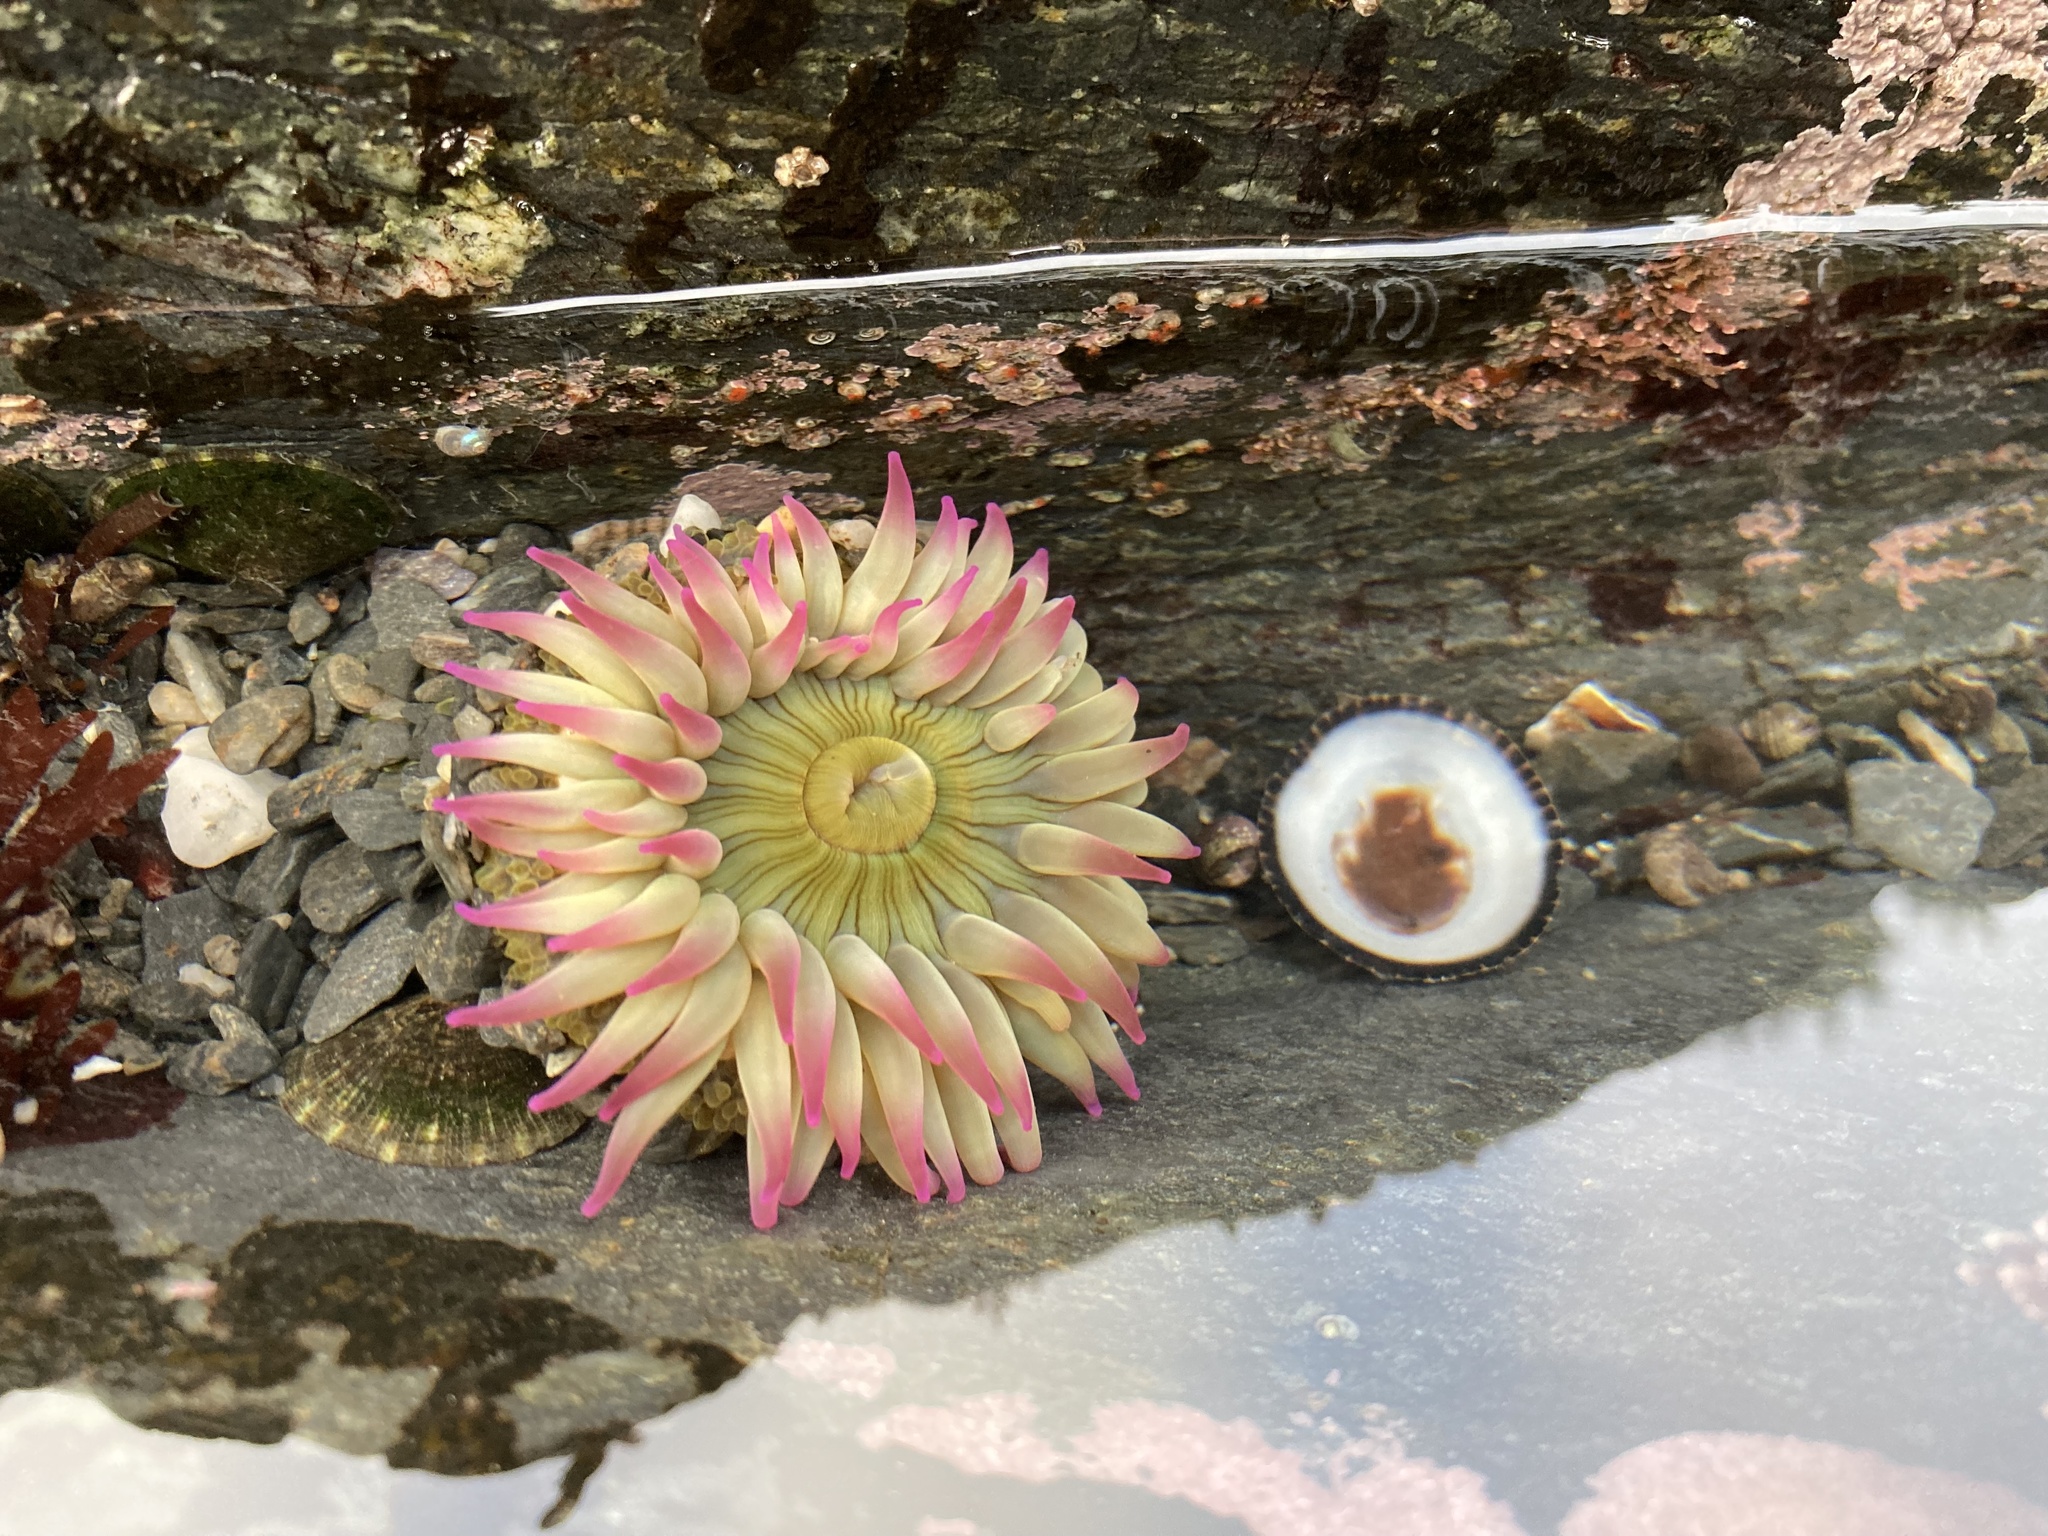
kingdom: Animalia
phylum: Cnidaria
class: Anthozoa
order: Actiniaria
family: Actiniidae
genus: Anthopleura
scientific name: Anthopleura elegantissima
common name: Clonal anemone
